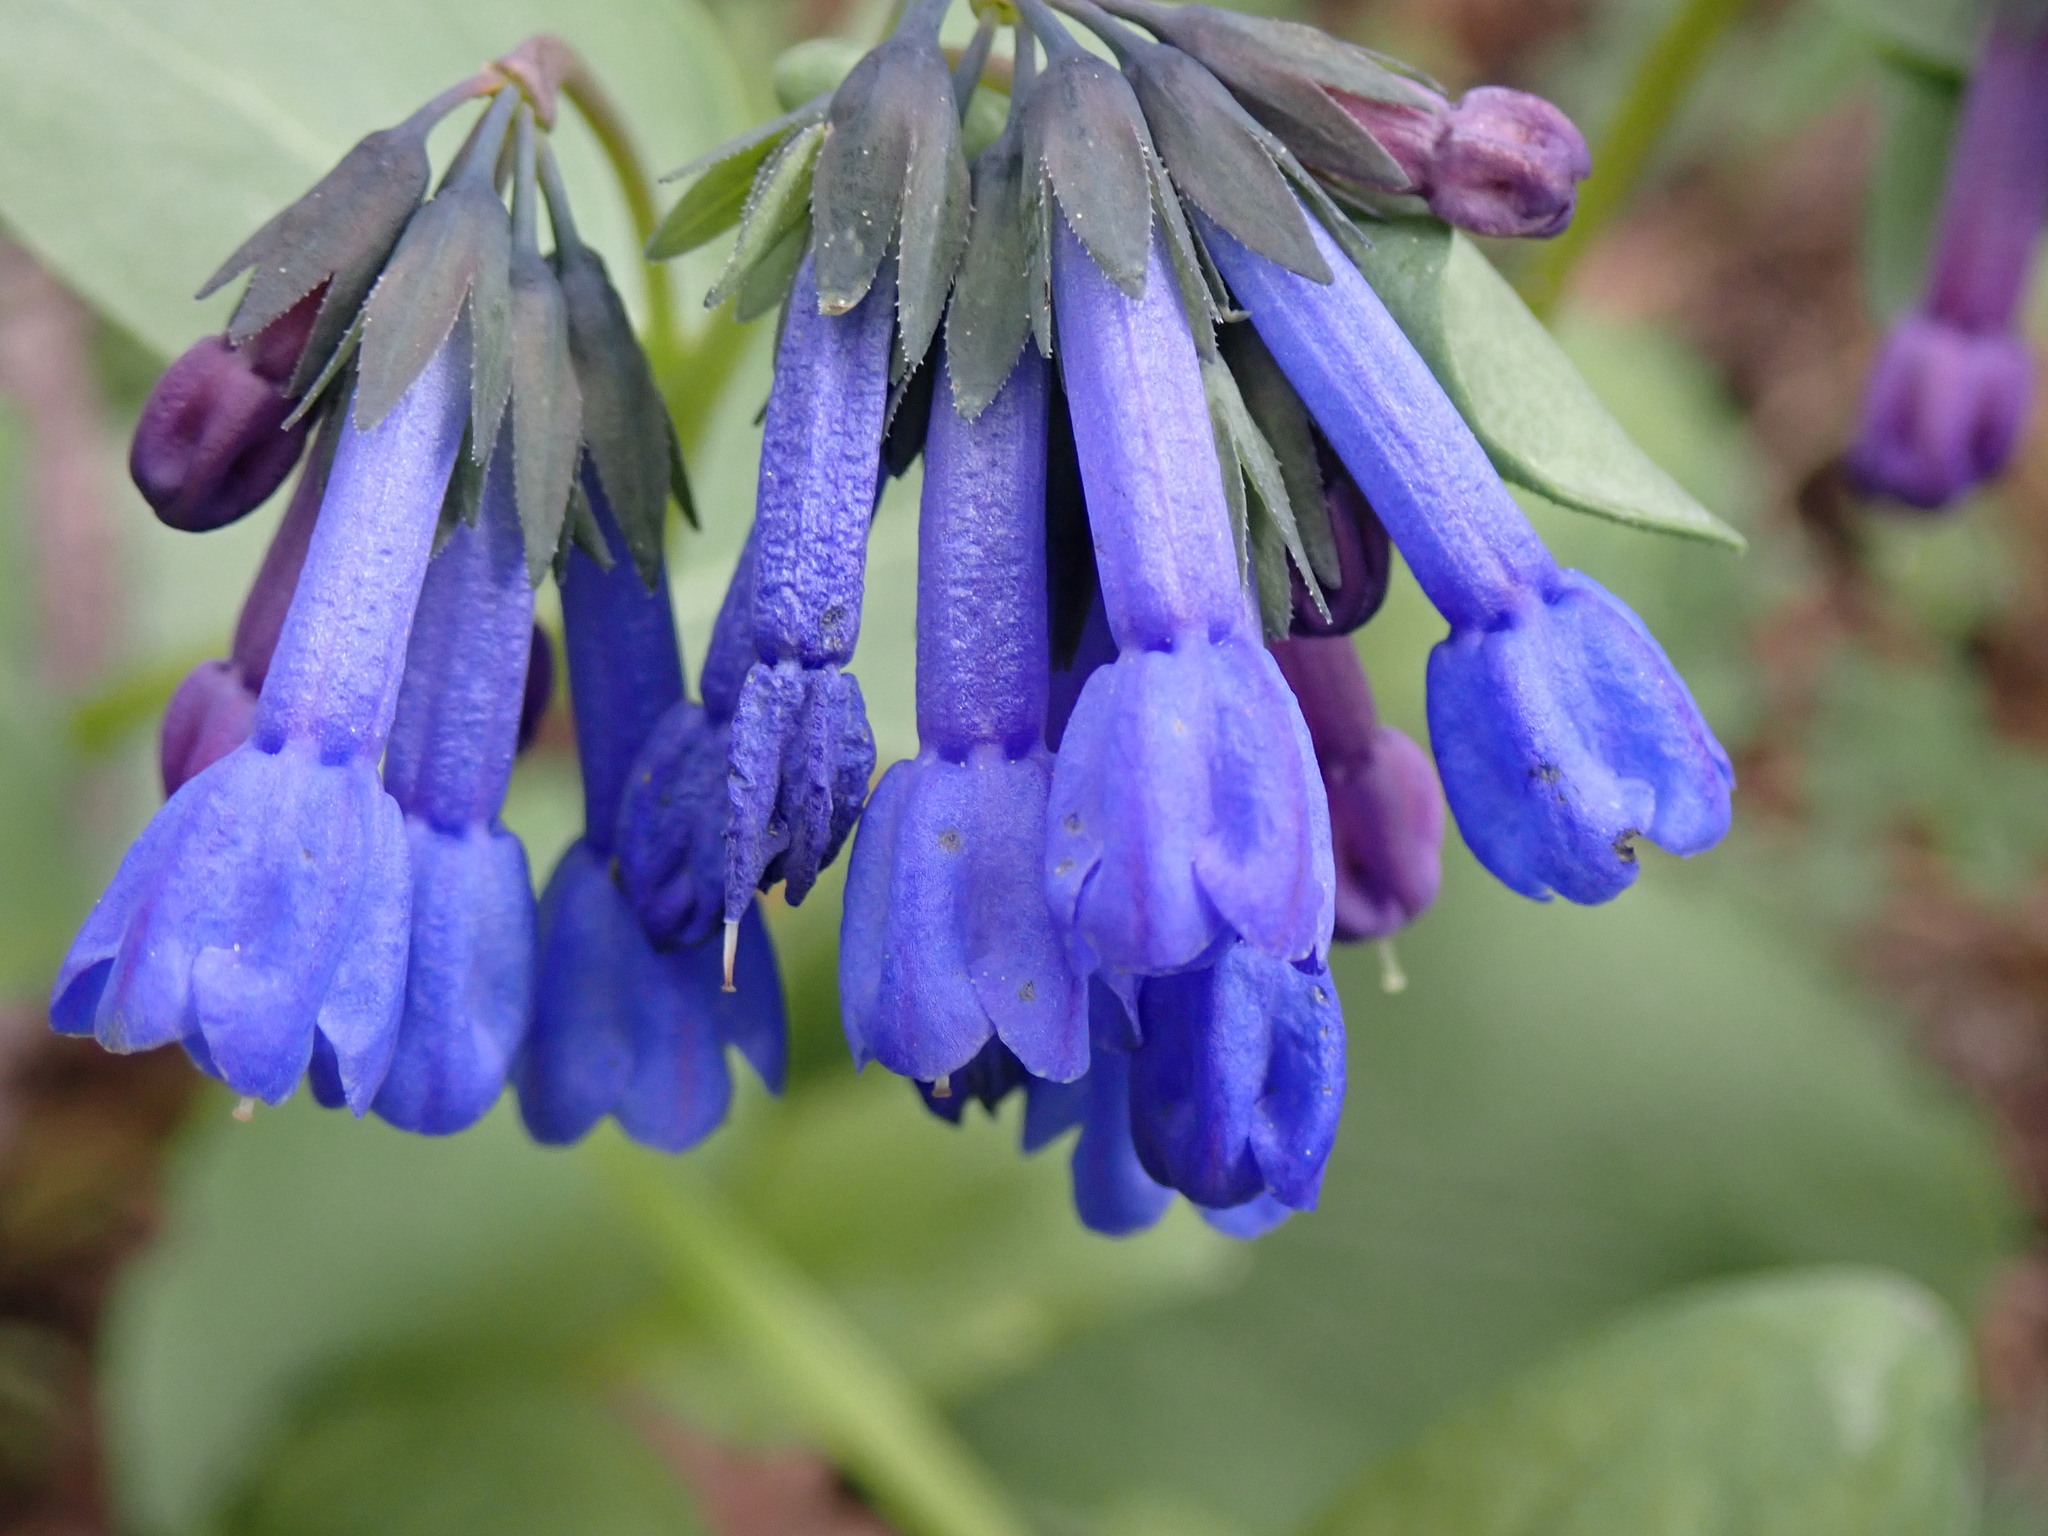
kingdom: Plantae
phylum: Tracheophyta
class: Magnoliopsida
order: Boraginales
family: Boraginaceae
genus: Mertensia
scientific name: Mertensia longiflora
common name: Large-flowered bluebells
